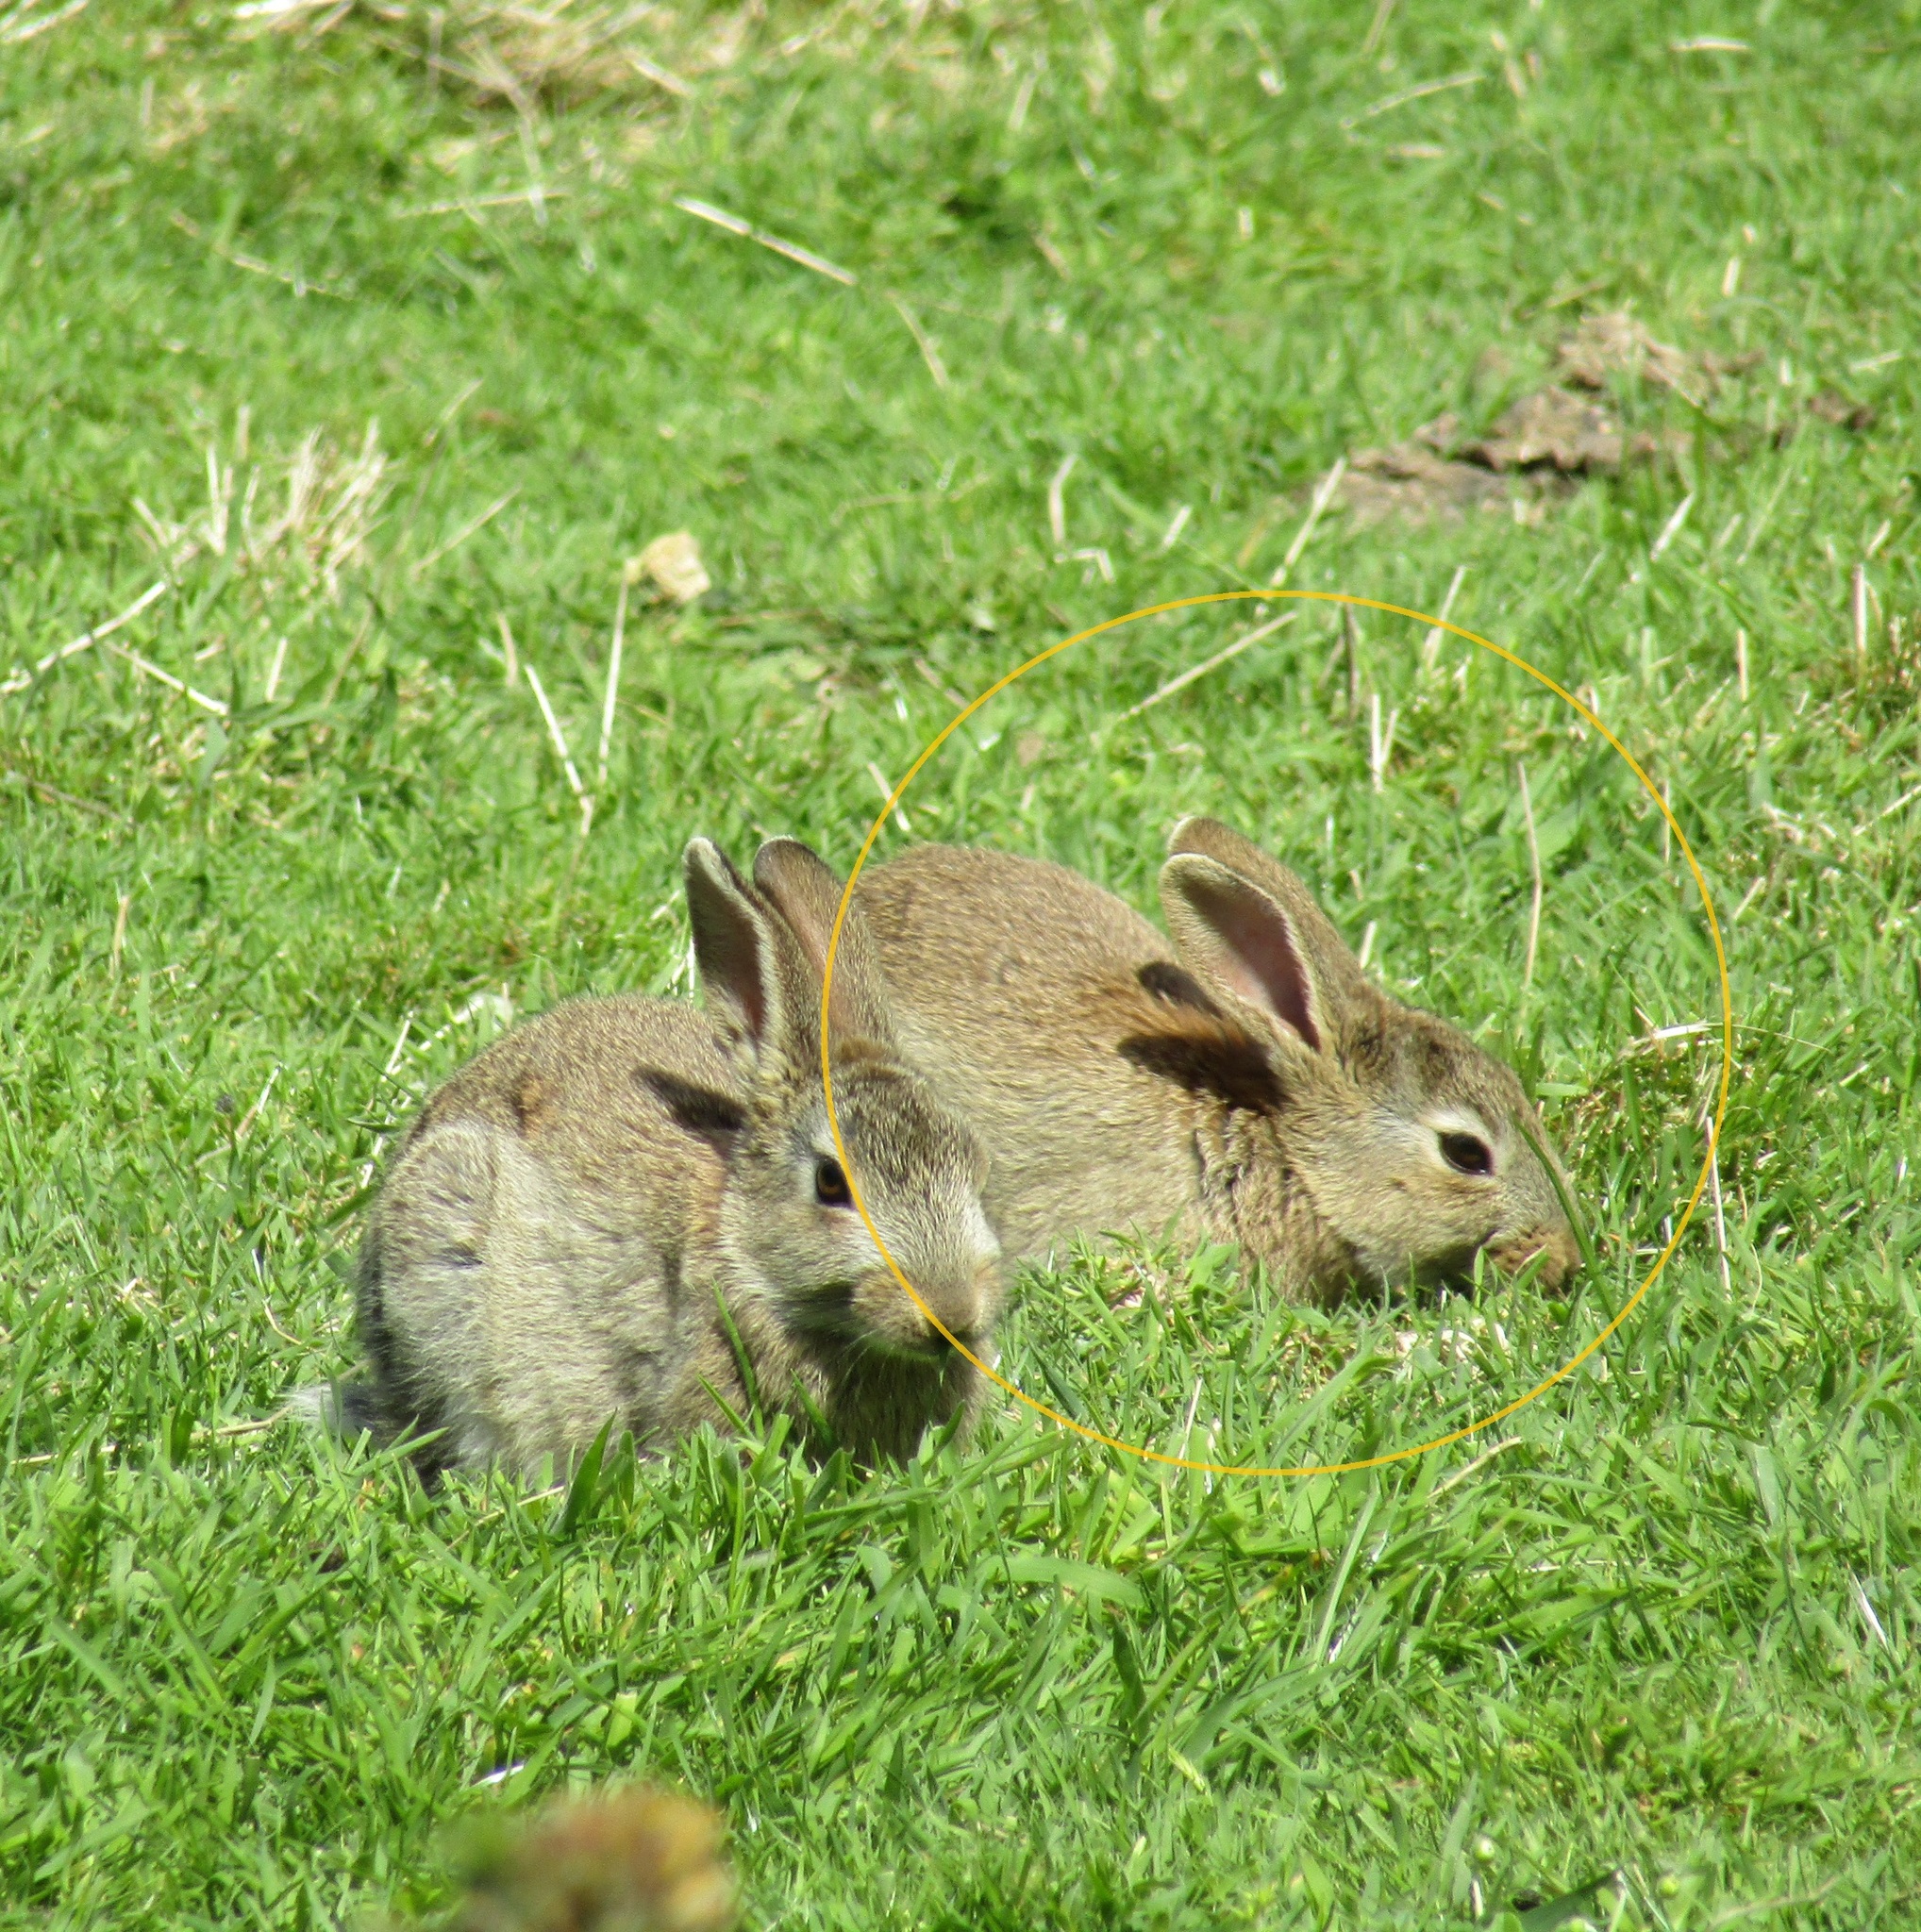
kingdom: Animalia
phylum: Chordata
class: Mammalia
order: Lagomorpha
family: Leporidae
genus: Oryctolagus
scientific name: Oryctolagus cuniculus
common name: European rabbit
